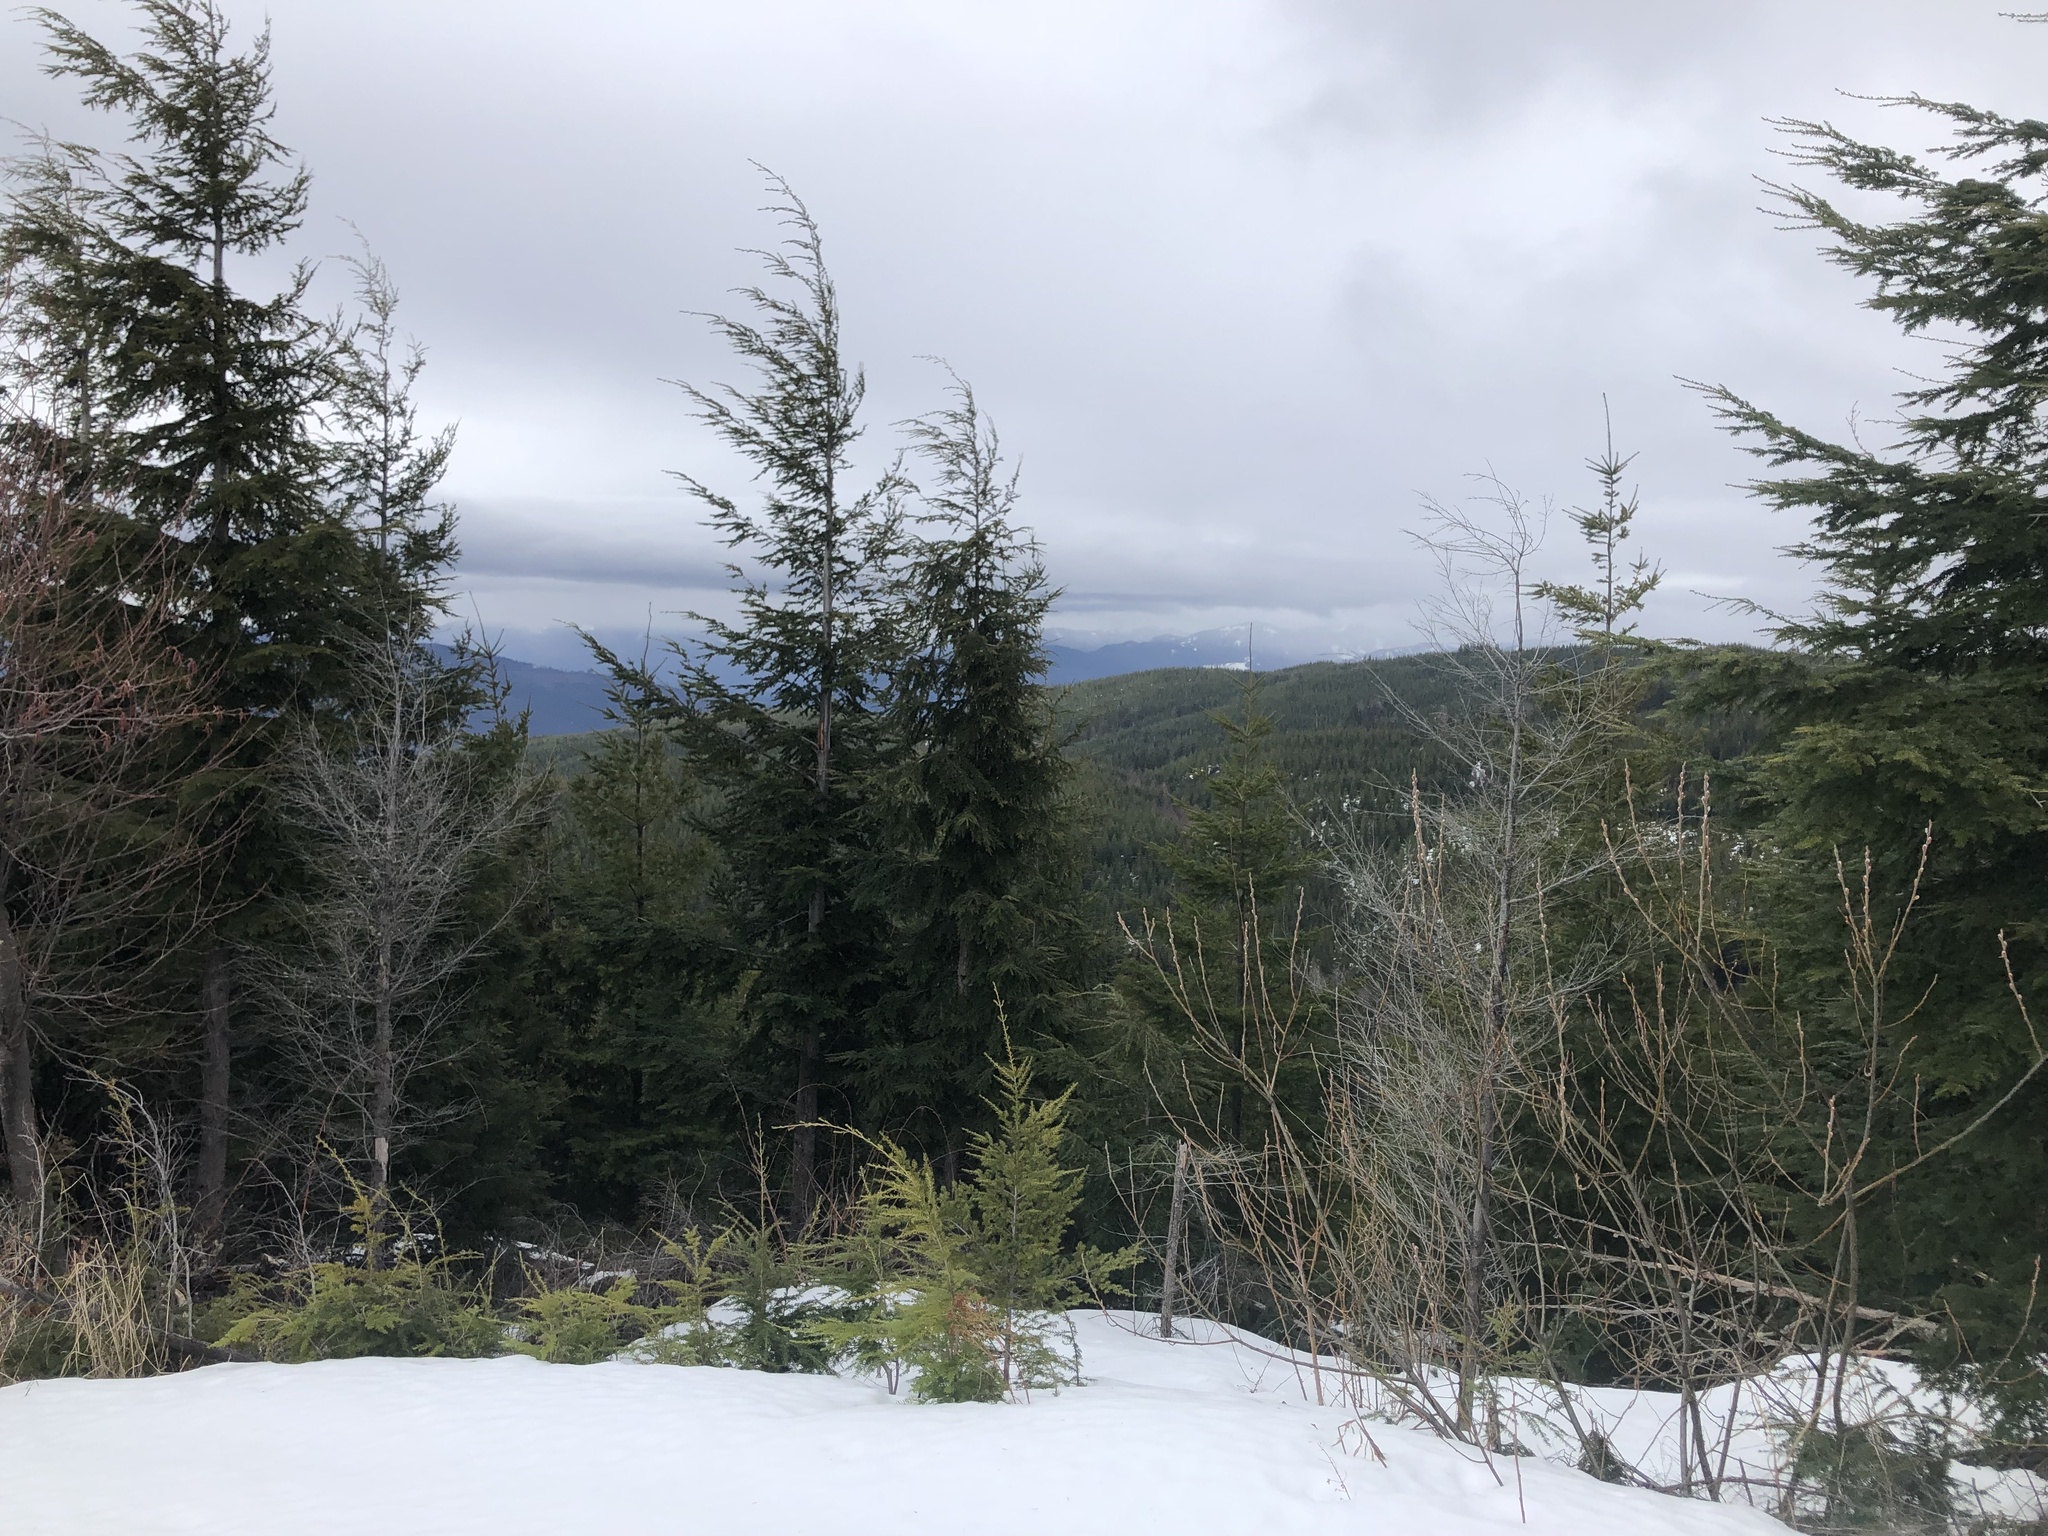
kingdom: Plantae
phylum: Tracheophyta
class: Pinopsida
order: Pinales
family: Pinaceae
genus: Tsuga
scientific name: Tsuga heterophylla
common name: Western hemlock
